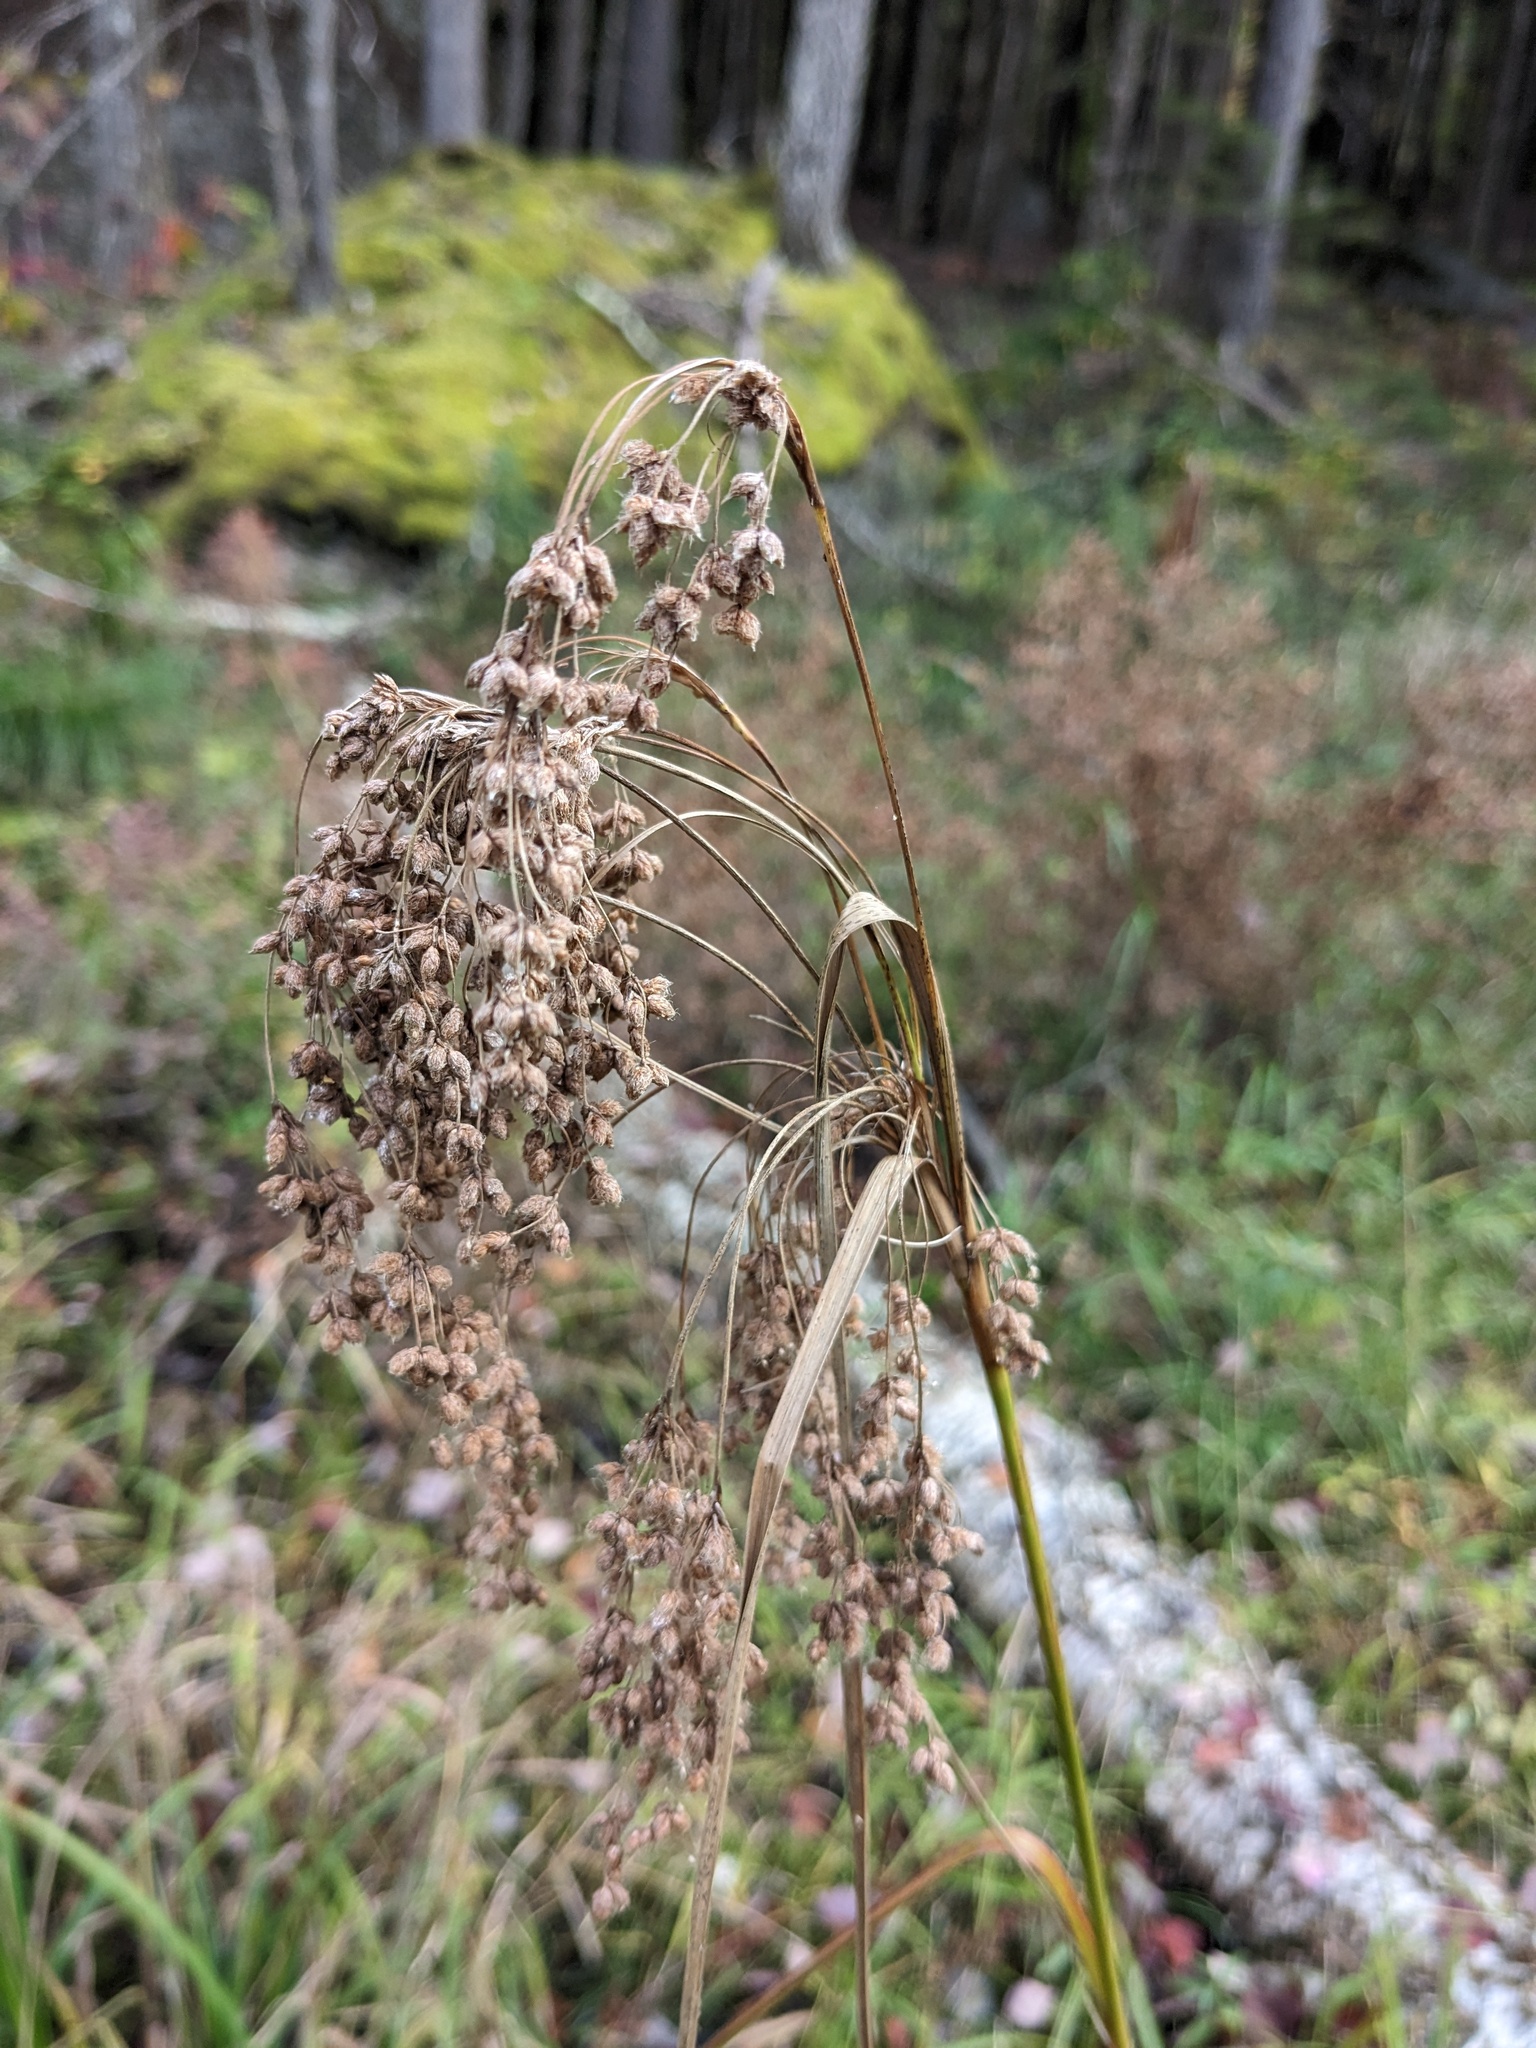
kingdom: Plantae
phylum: Tracheophyta
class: Liliopsida
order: Poales
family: Cyperaceae
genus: Scirpus
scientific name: Scirpus cyperinus
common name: Black-sheathed bulrush
